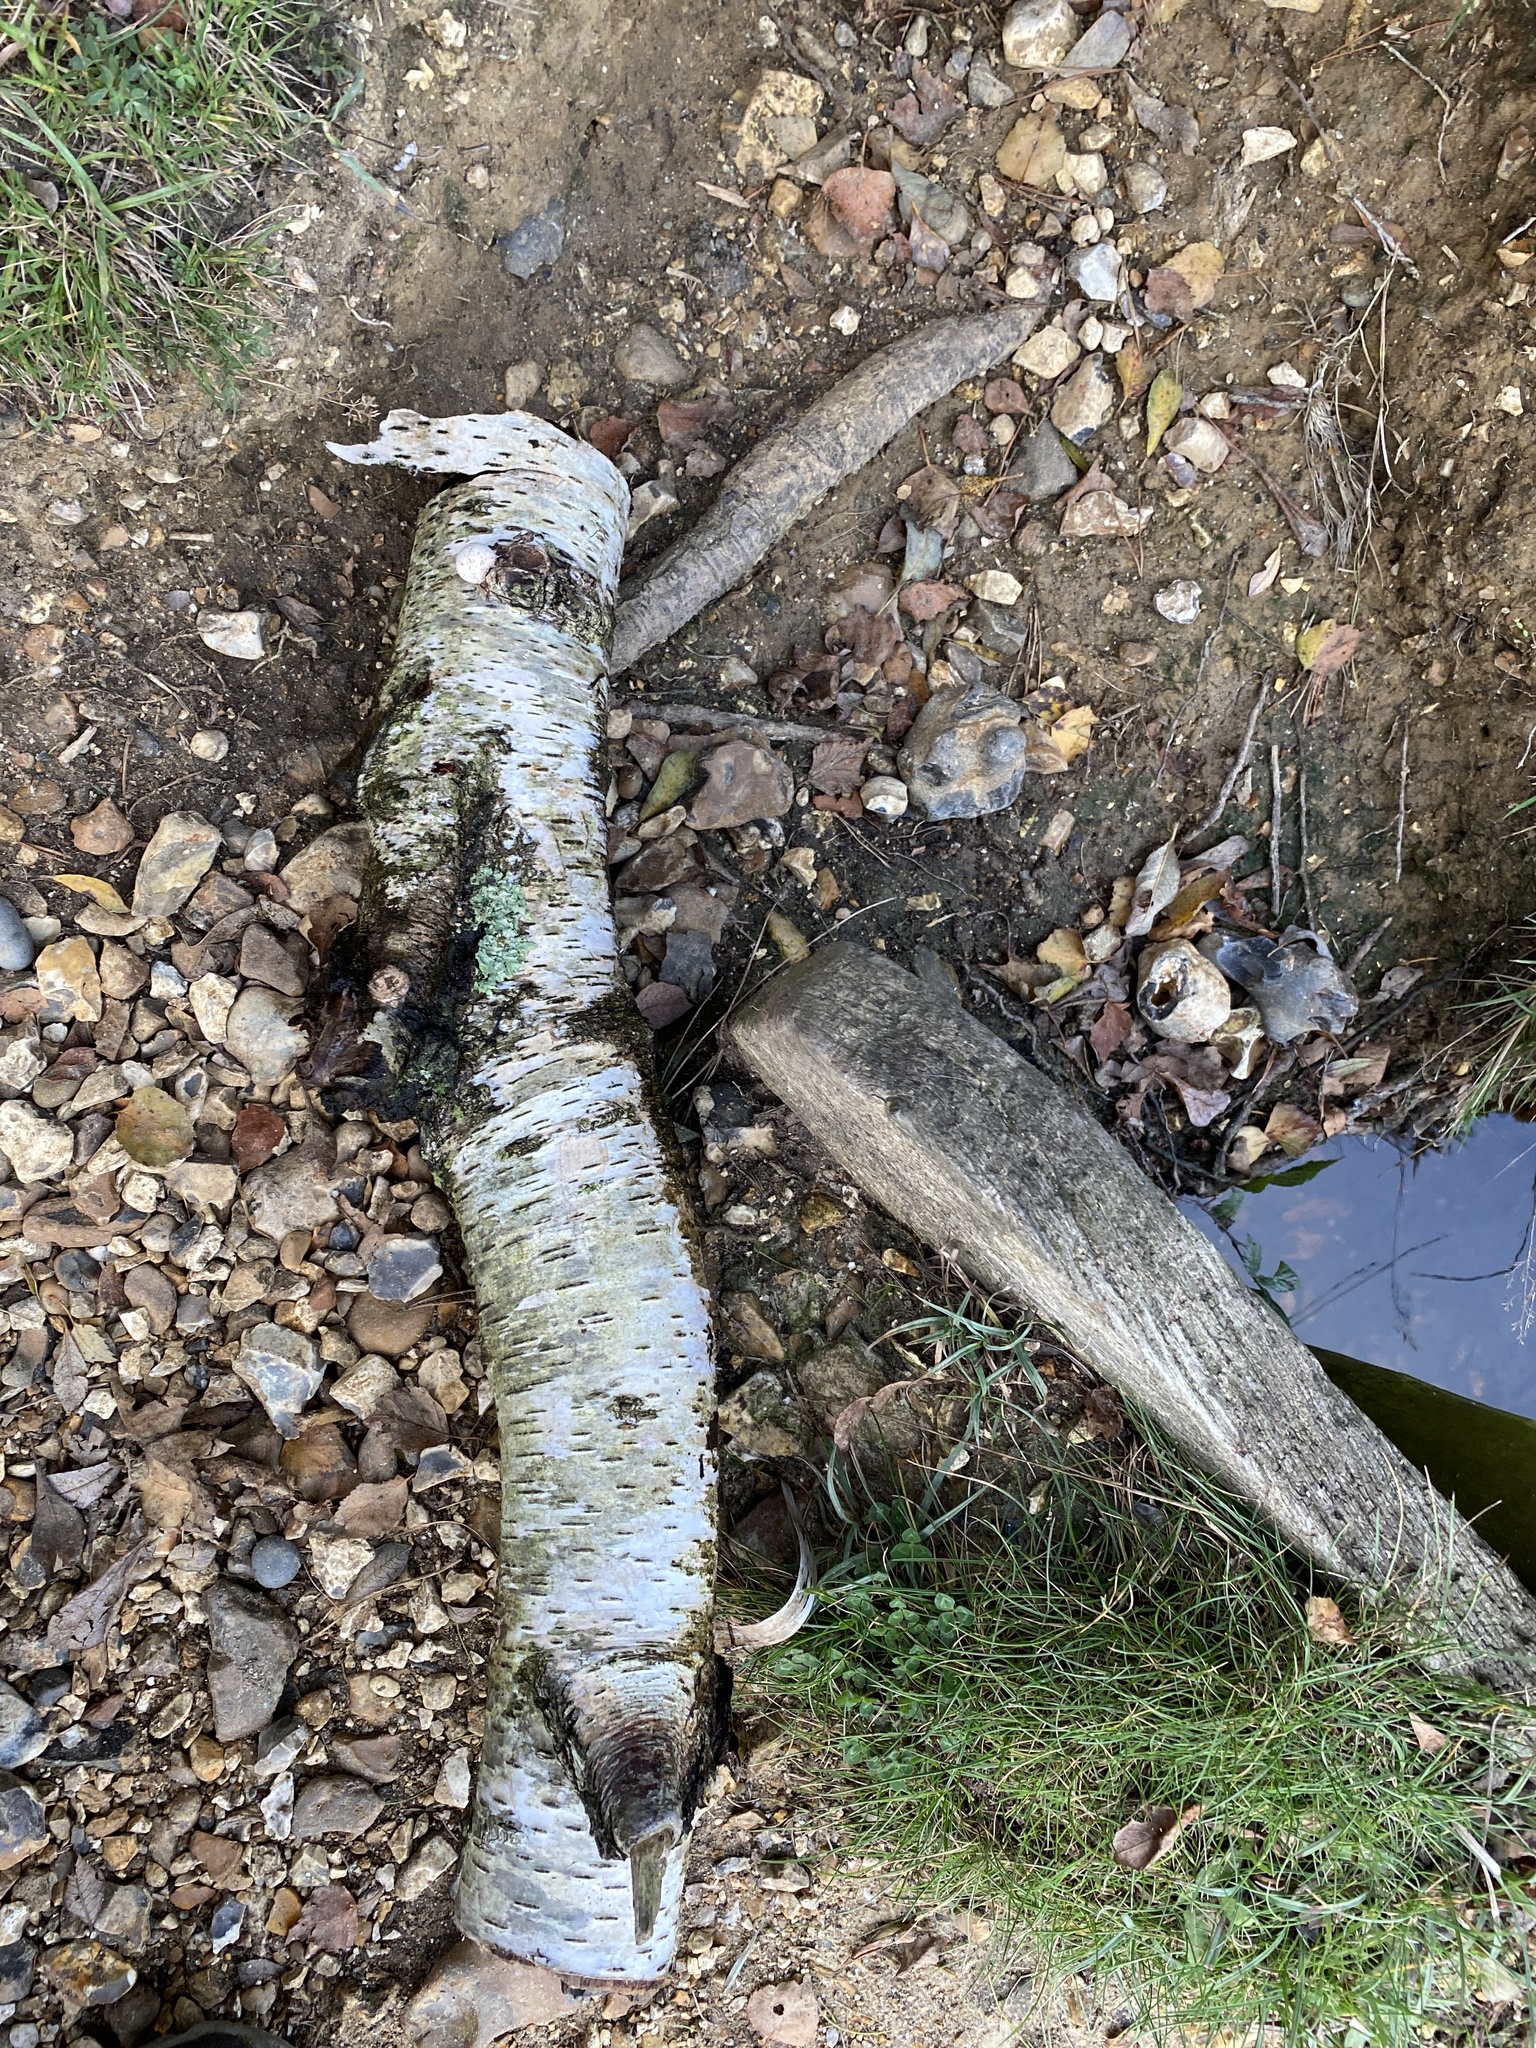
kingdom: Fungi
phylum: Basidiomycota
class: Agaricomycetes
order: Polyporales
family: Fomitopsidaceae
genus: Fomitopsis
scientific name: Fomitopsis betulina
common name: Birch polypore
